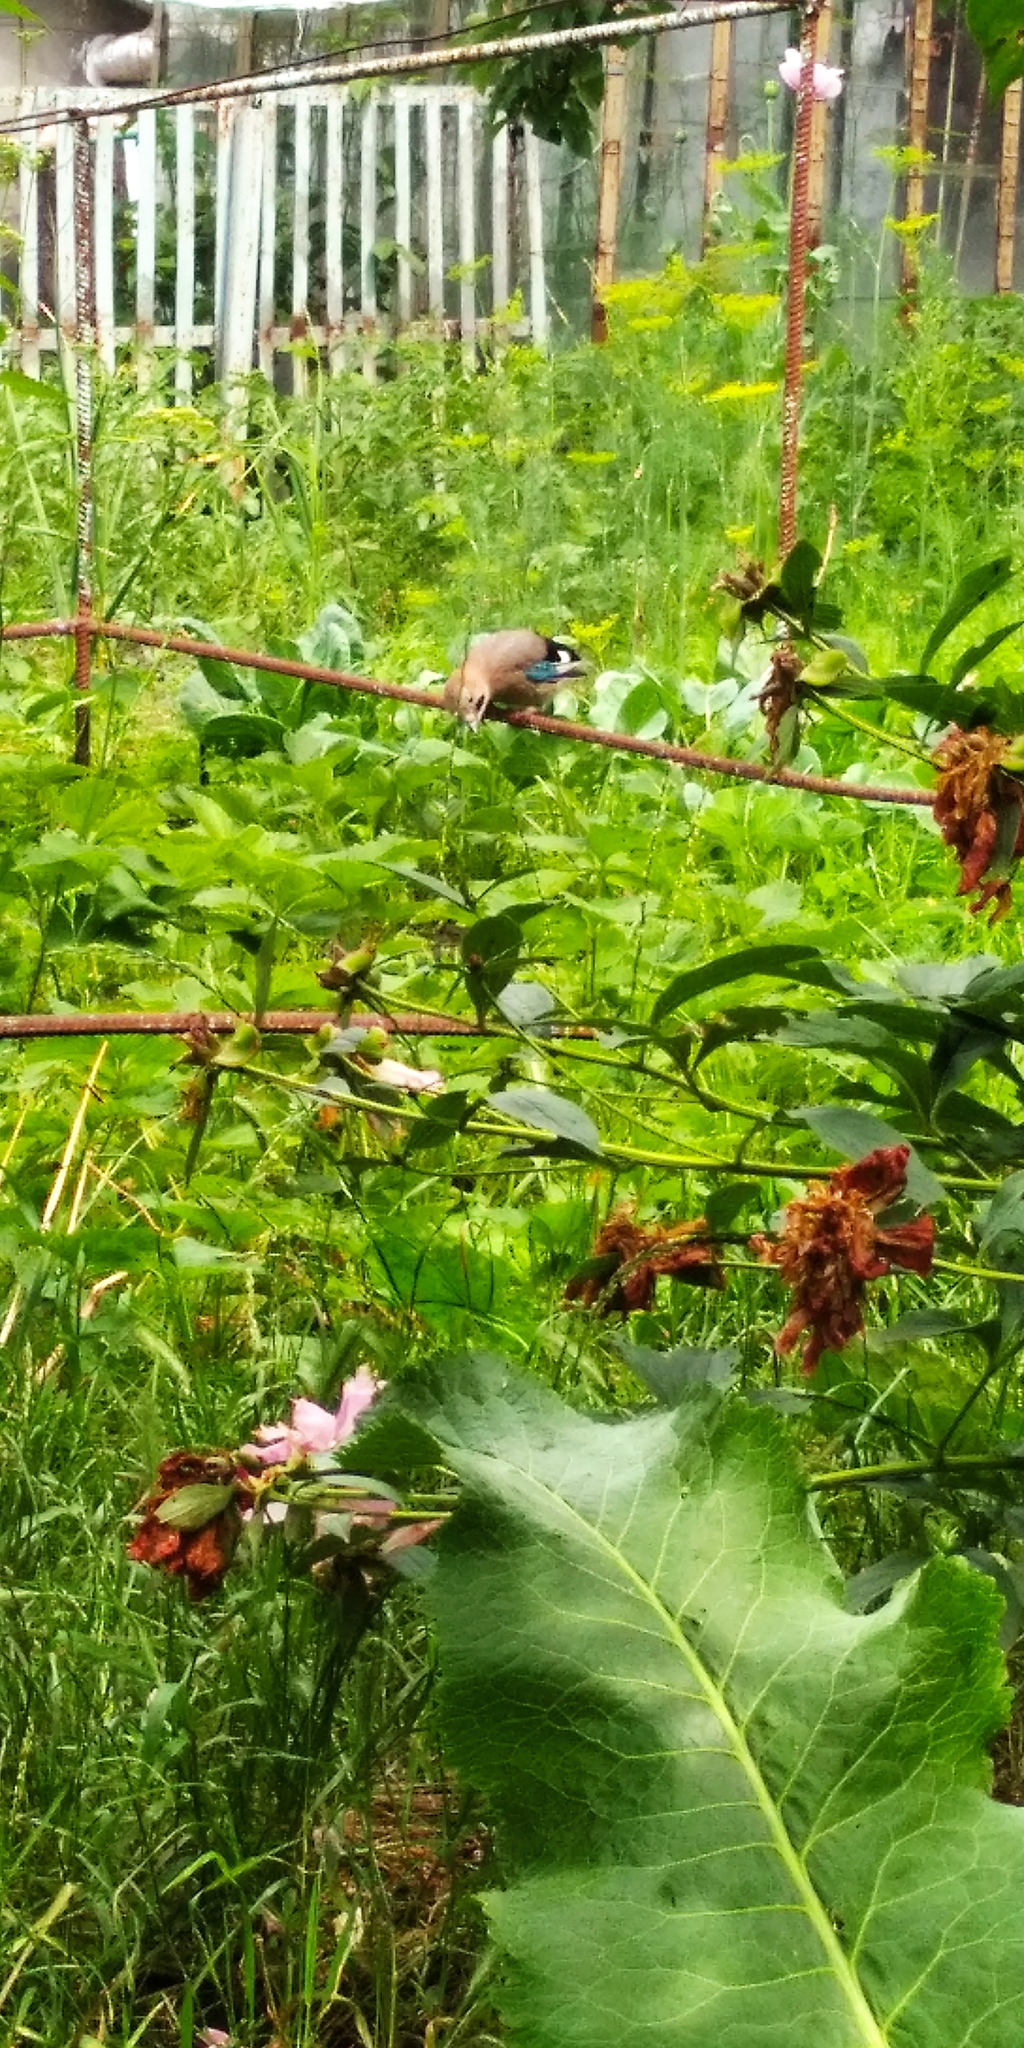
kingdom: Animalia
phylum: Chordata
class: Aves
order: Passeriformes
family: Corvidae
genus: Garrulus
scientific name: Garrulus glandarius
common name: Eurasian jay
